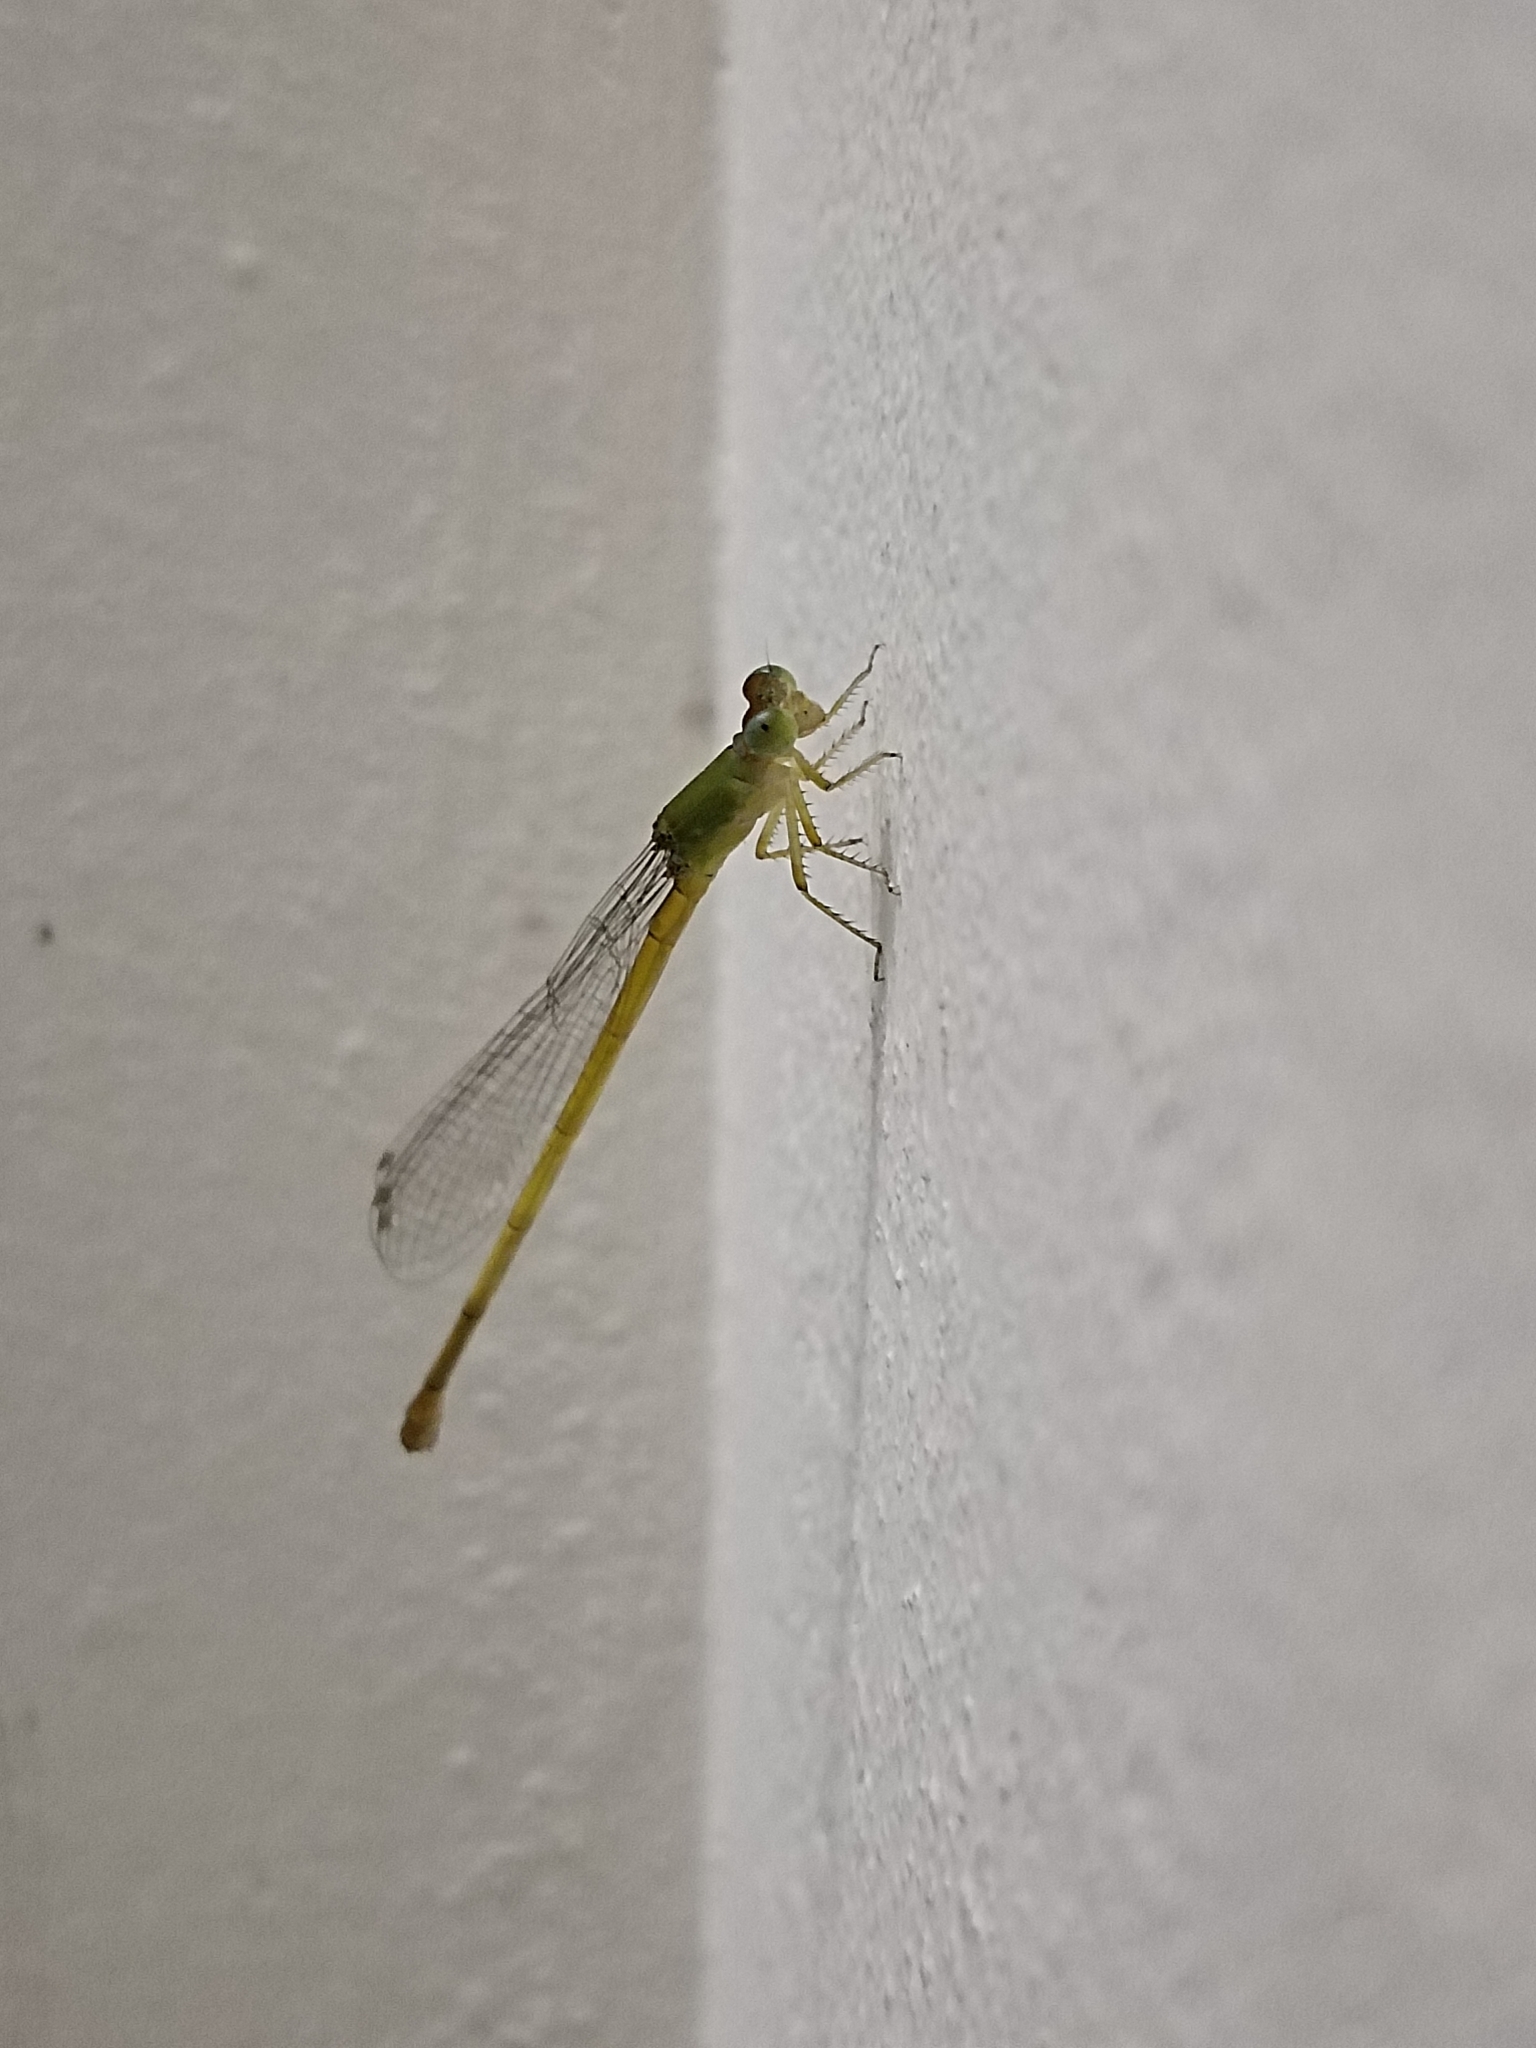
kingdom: Animalia
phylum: Arthropoda
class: Insecta
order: Odonata
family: Coenagrionidae
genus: Ceriagrion
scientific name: Ceriagrion coromandelianum
